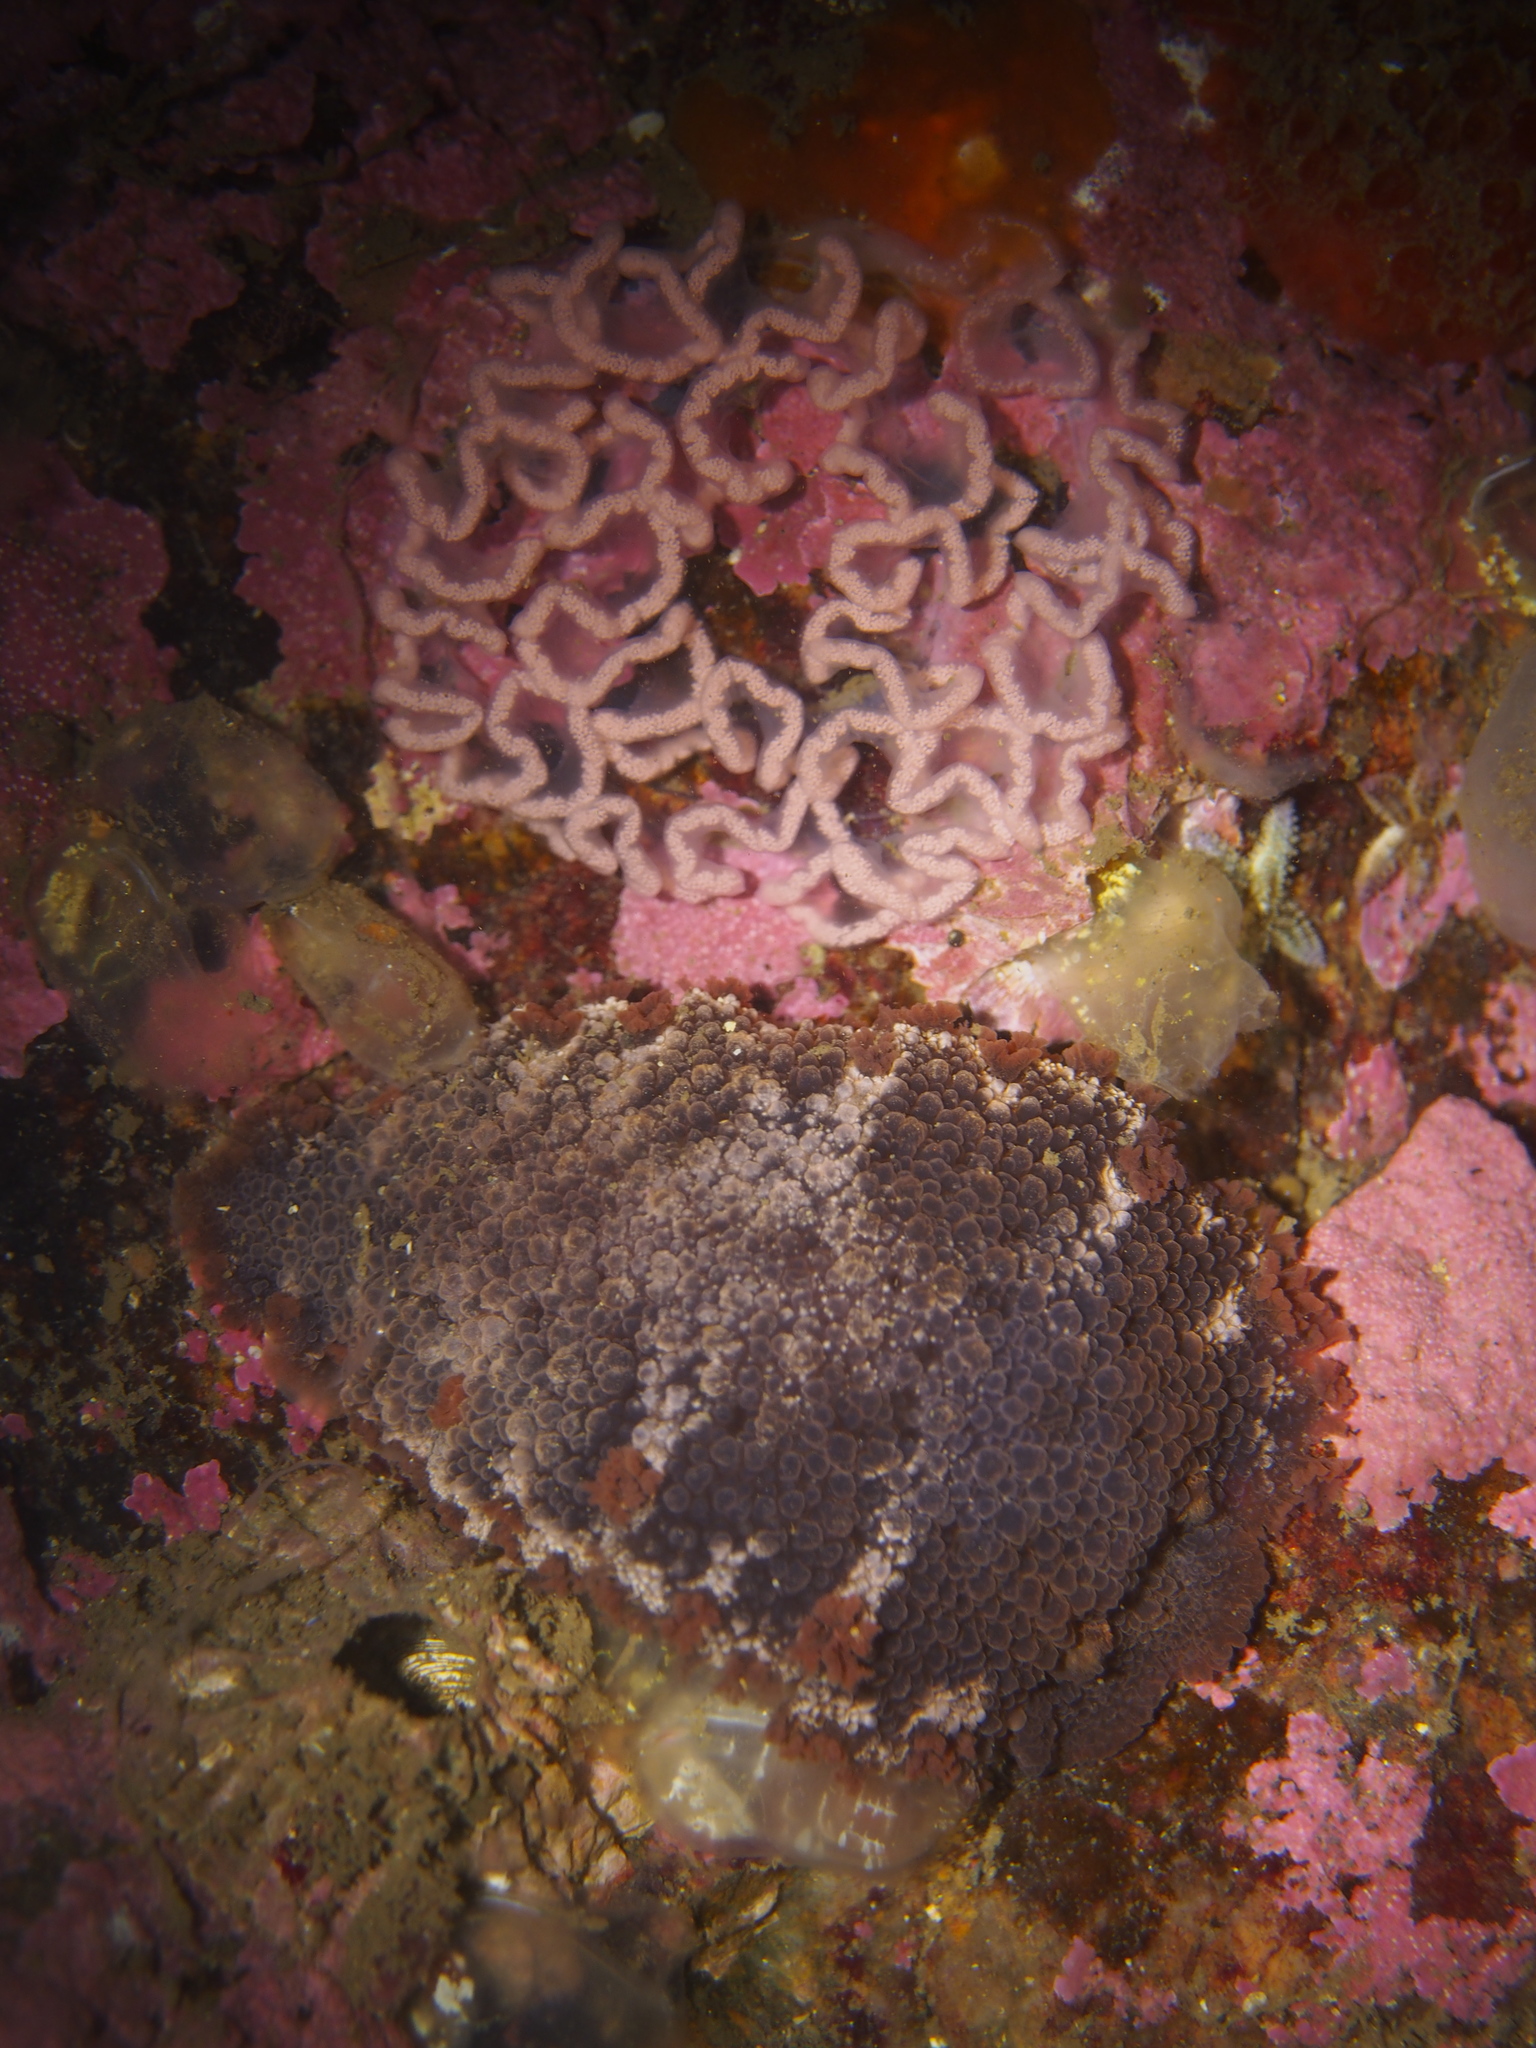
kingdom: Animalia
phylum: Mollusca
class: Gastropoda
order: Nudibranchia
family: Tritoniidae
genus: Tritonia
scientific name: Tritonia hombergii
